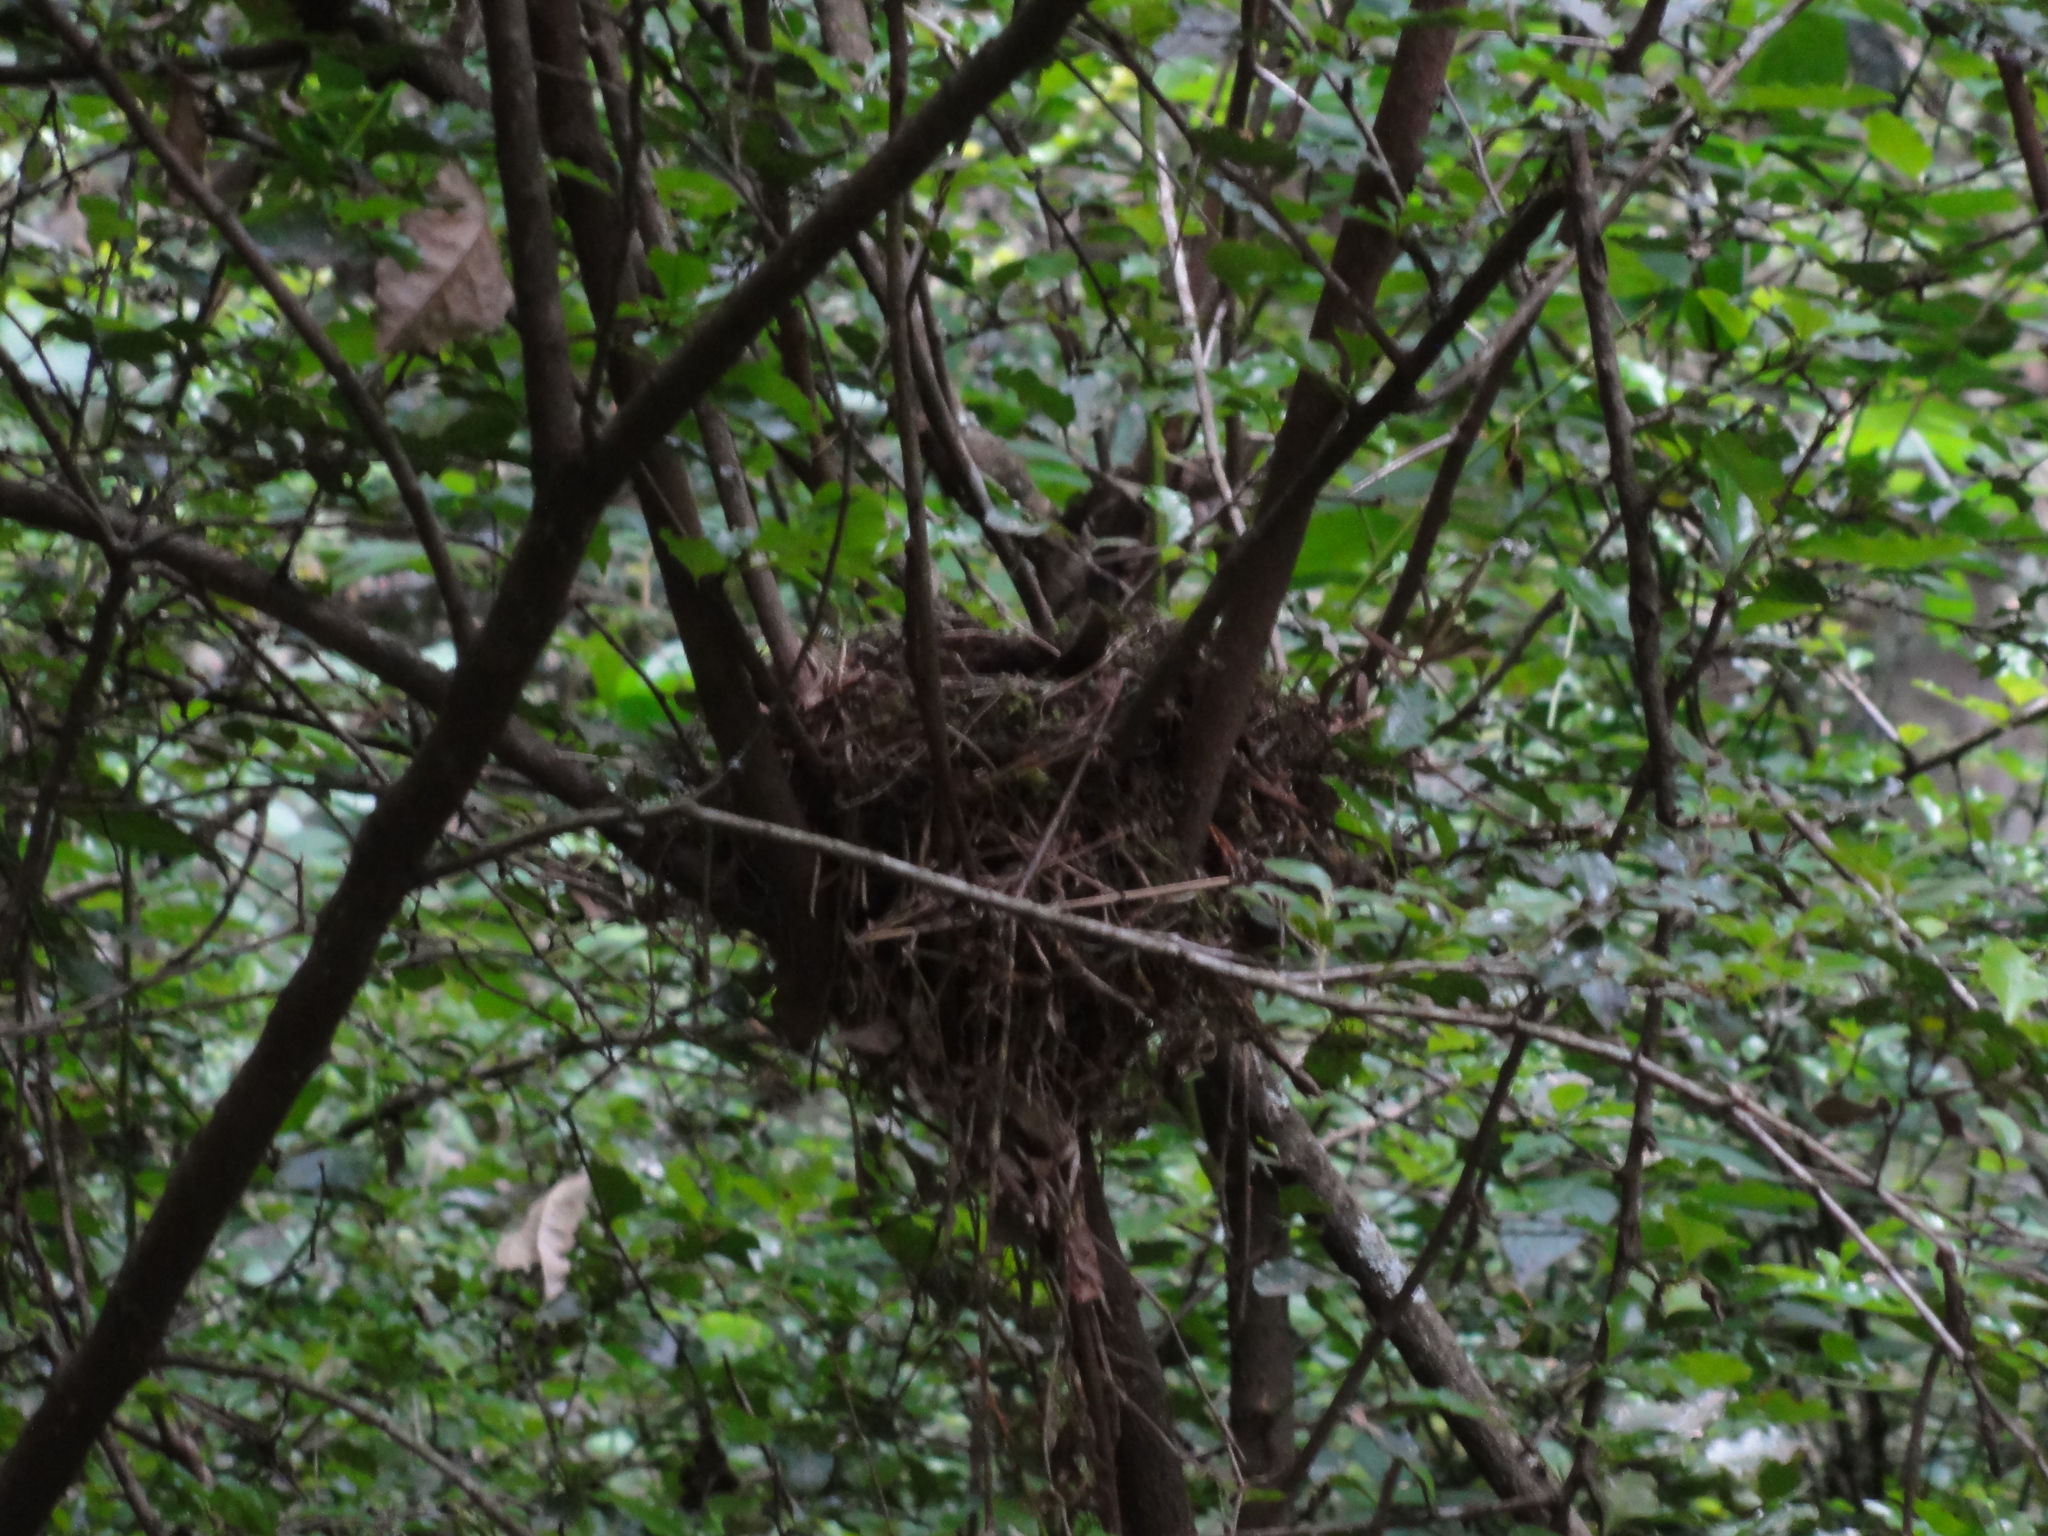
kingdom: Animalia
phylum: Chordata
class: Aves
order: Passeriformes
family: Turdidae
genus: Geokichla
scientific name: Geokichla gurneyi
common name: Orange ground-thrush
